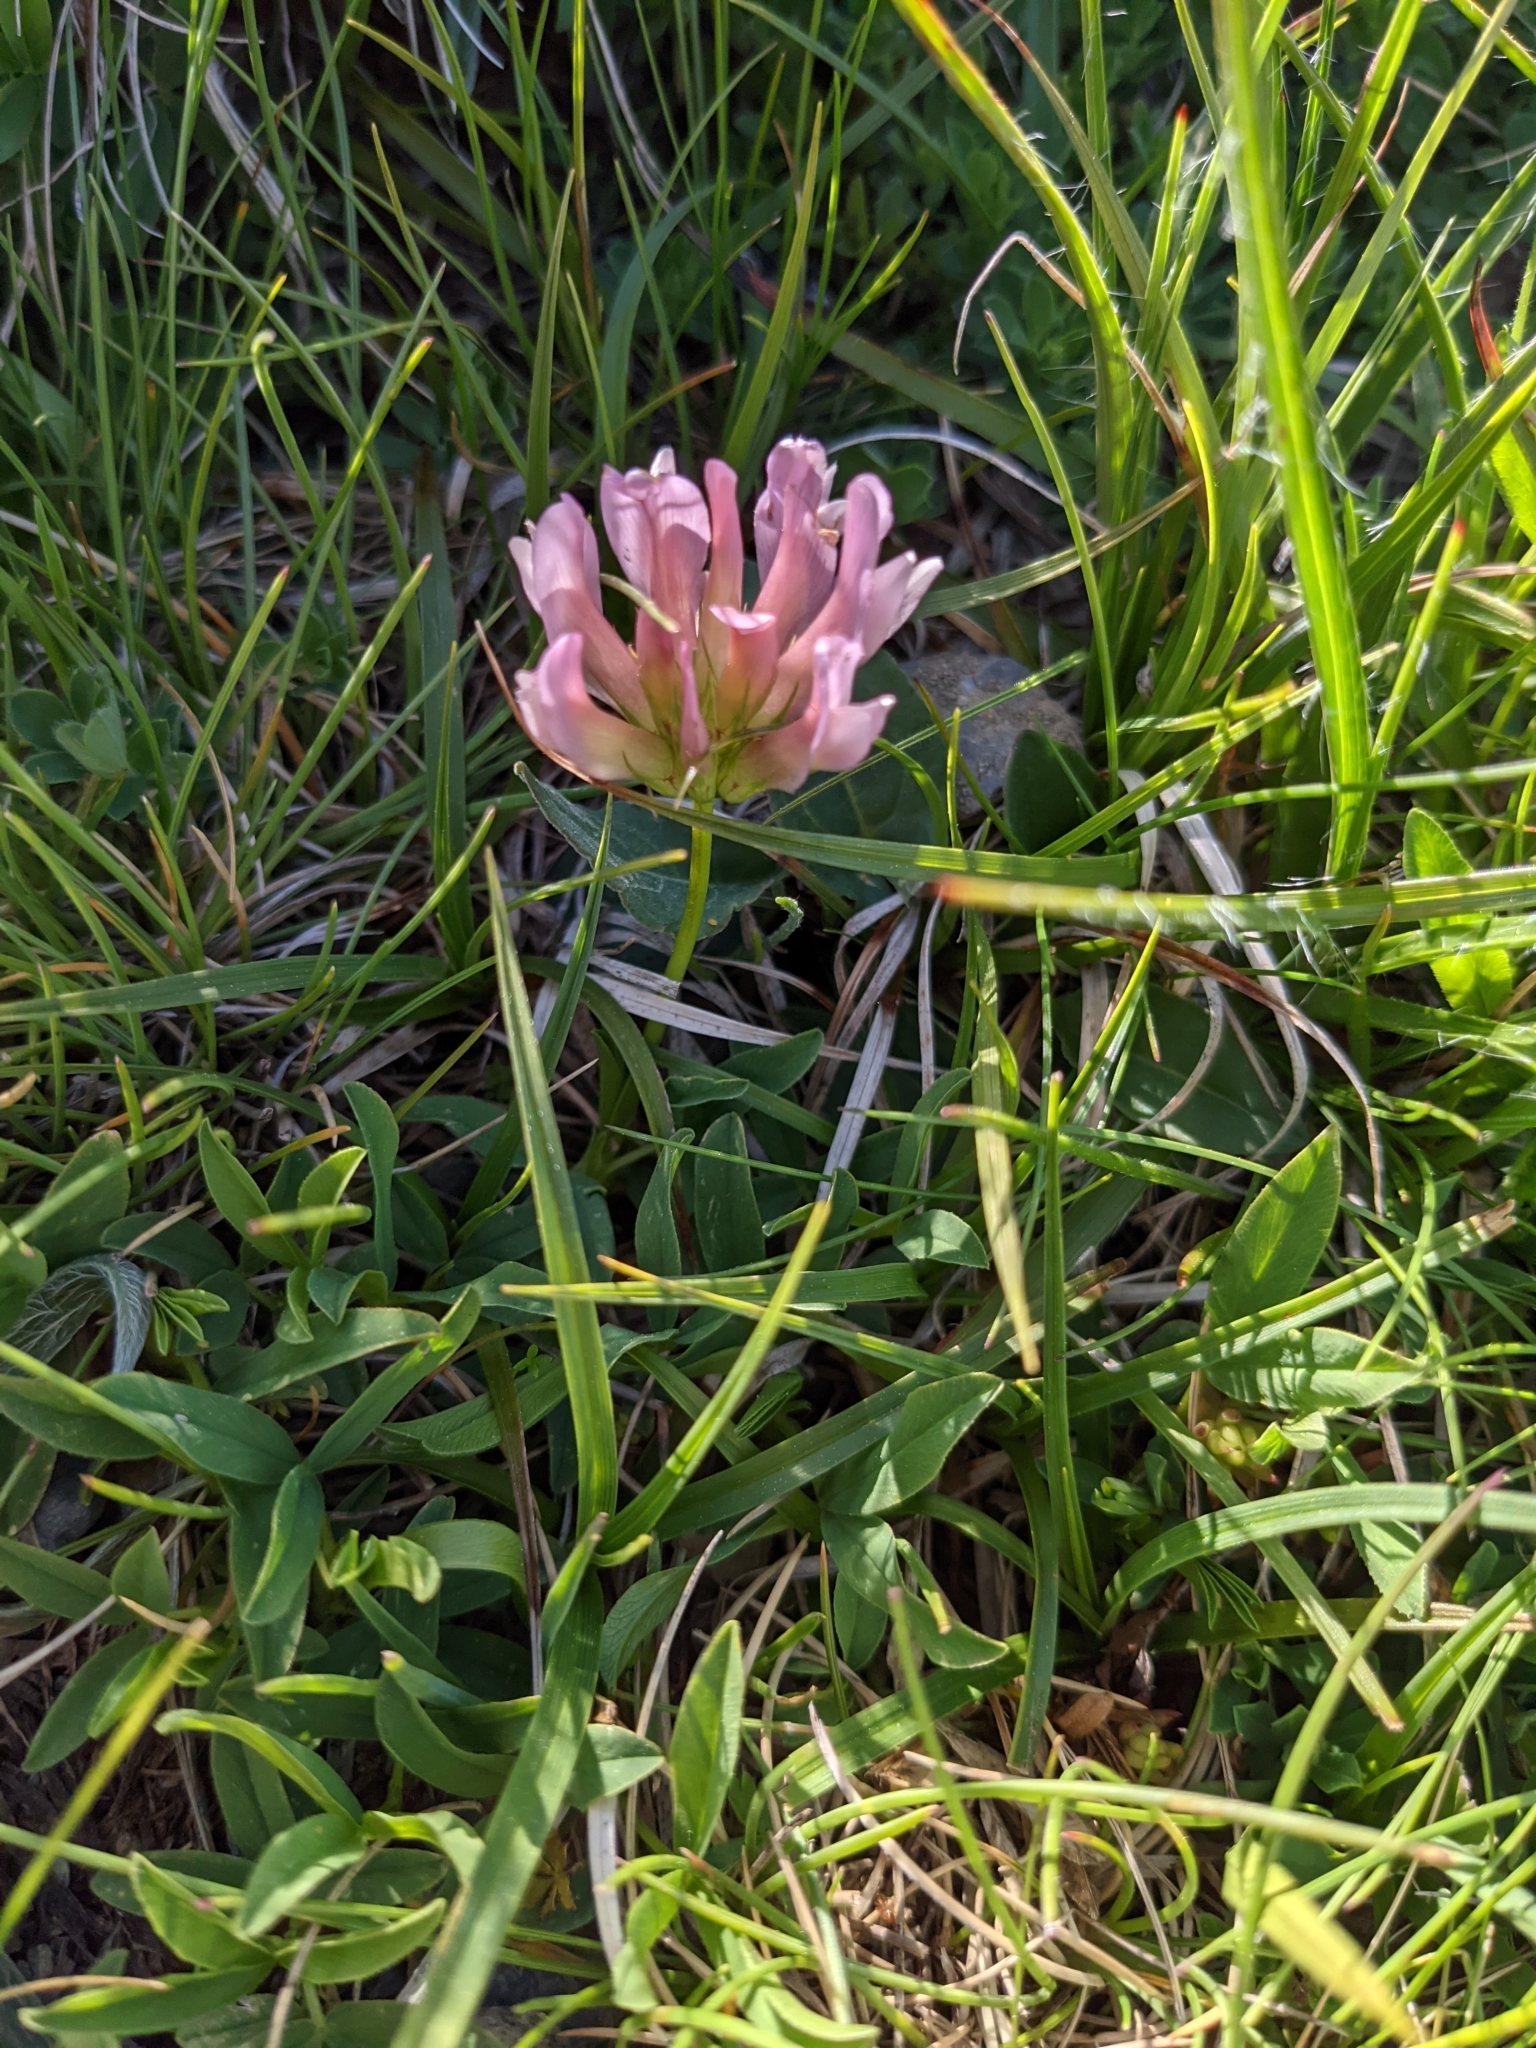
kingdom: Plantae
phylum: Tracheophyta
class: Magnoliopsida
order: Fabales
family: Fabaceae
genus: Trifolium
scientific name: Trifolium alpinum
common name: Alpine clover
